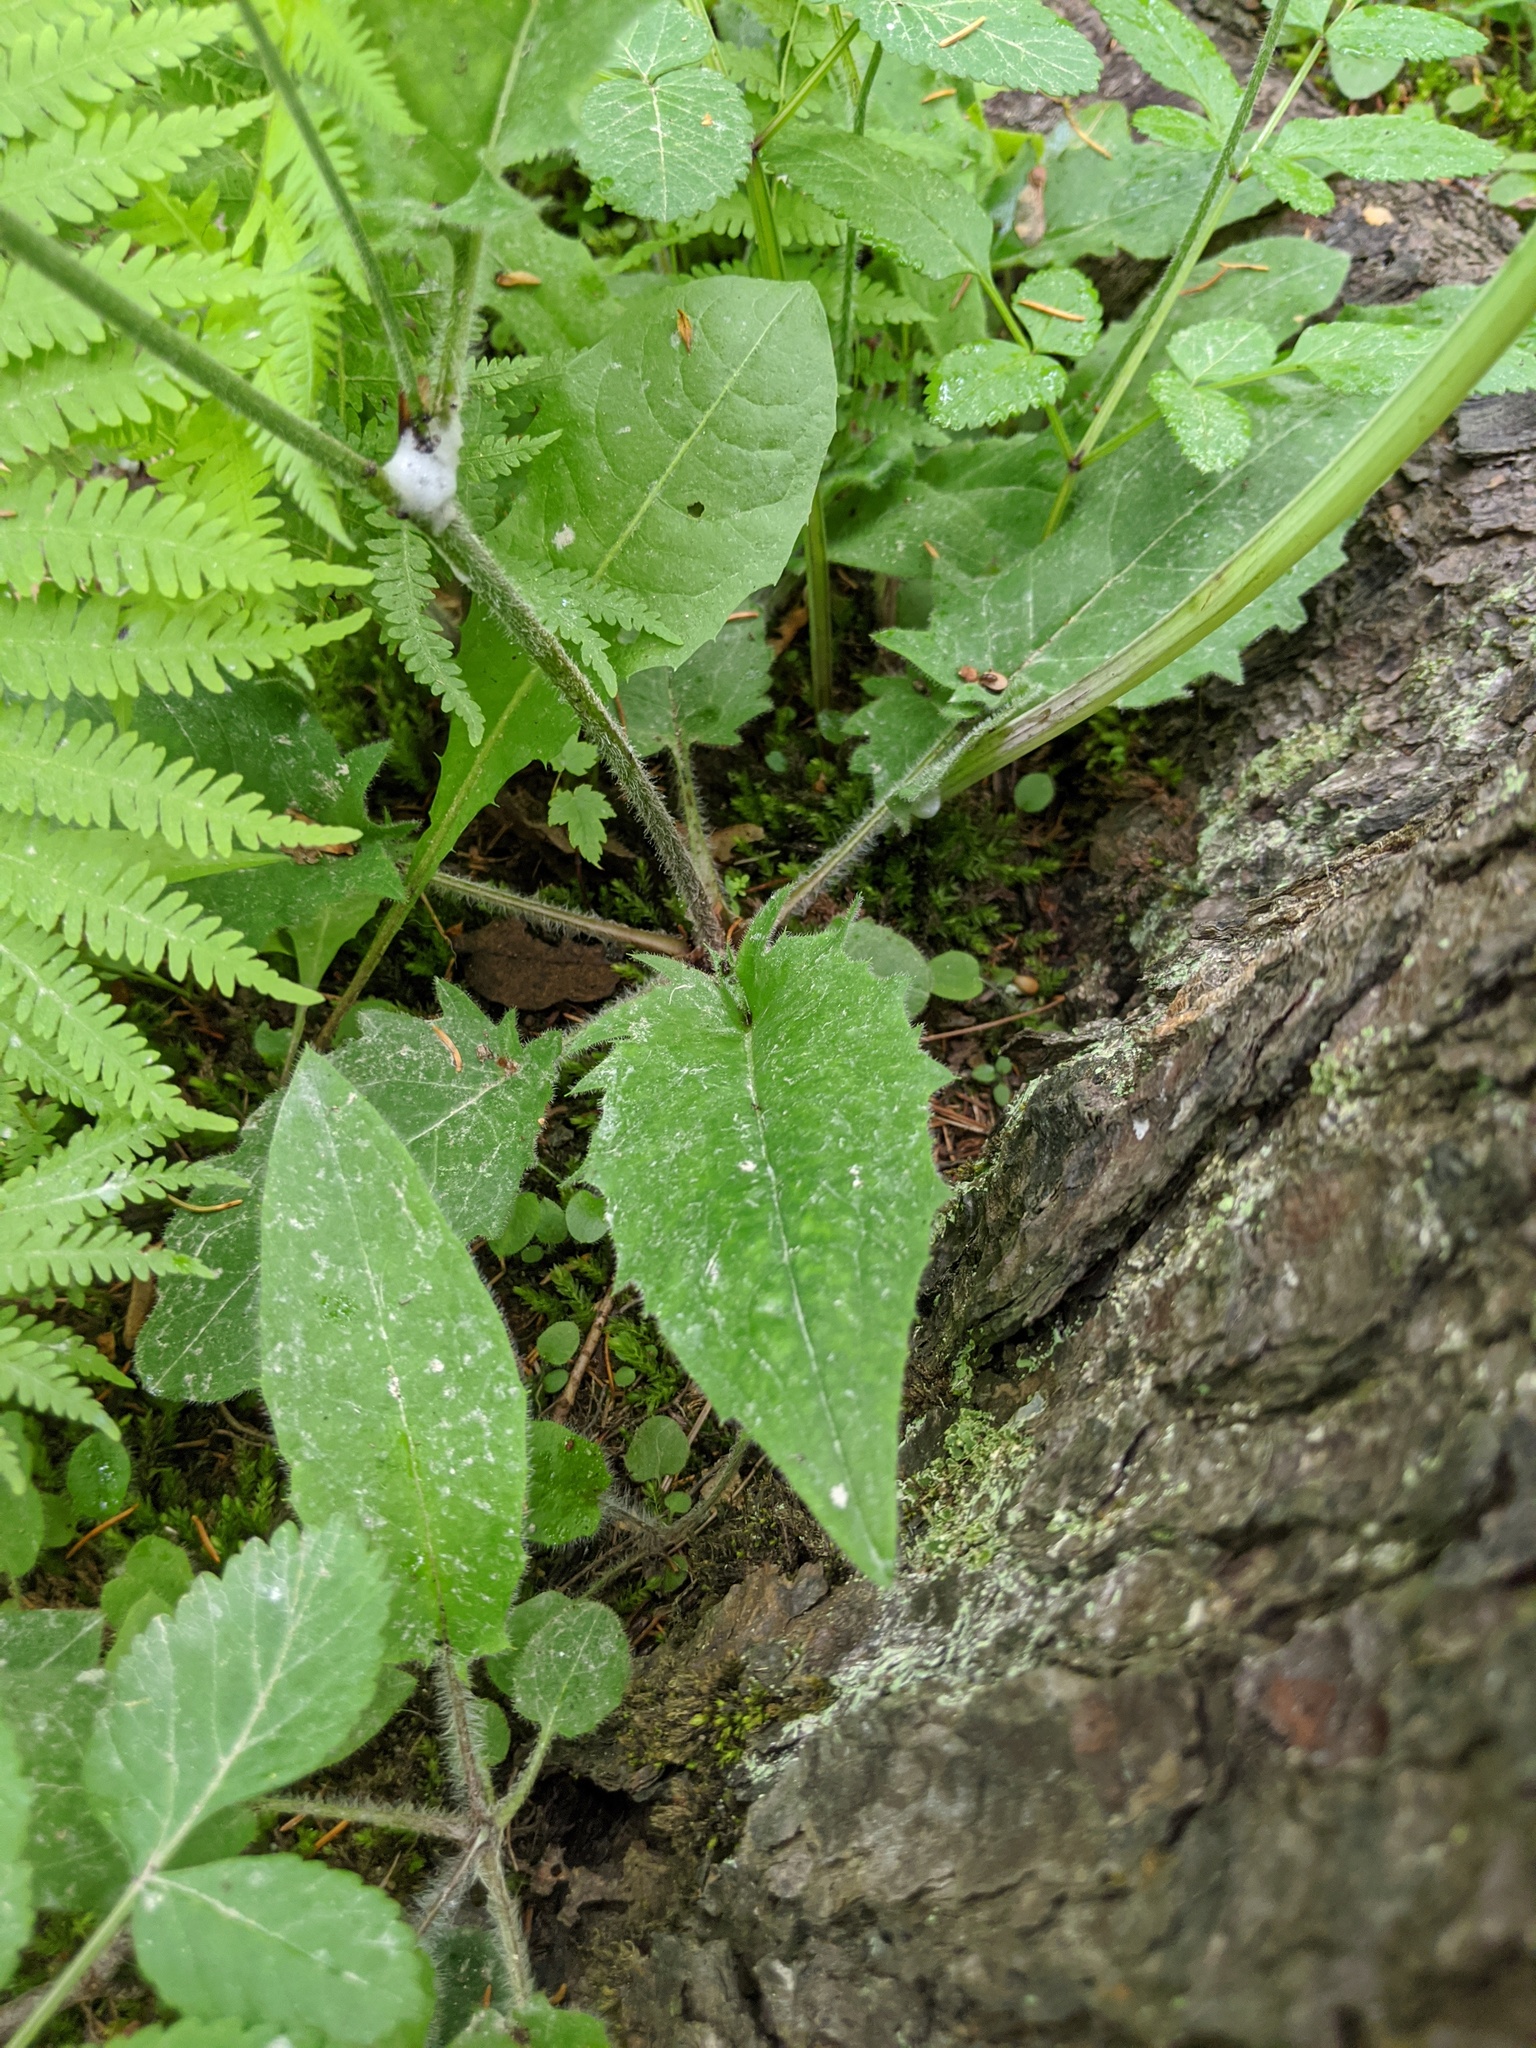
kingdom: Plantae
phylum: Tracheophyta
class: Magnoliopsida
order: Asterales
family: Asteraceae
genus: Hieracium
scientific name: Hieracium murorum
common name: Wall hawkweed
